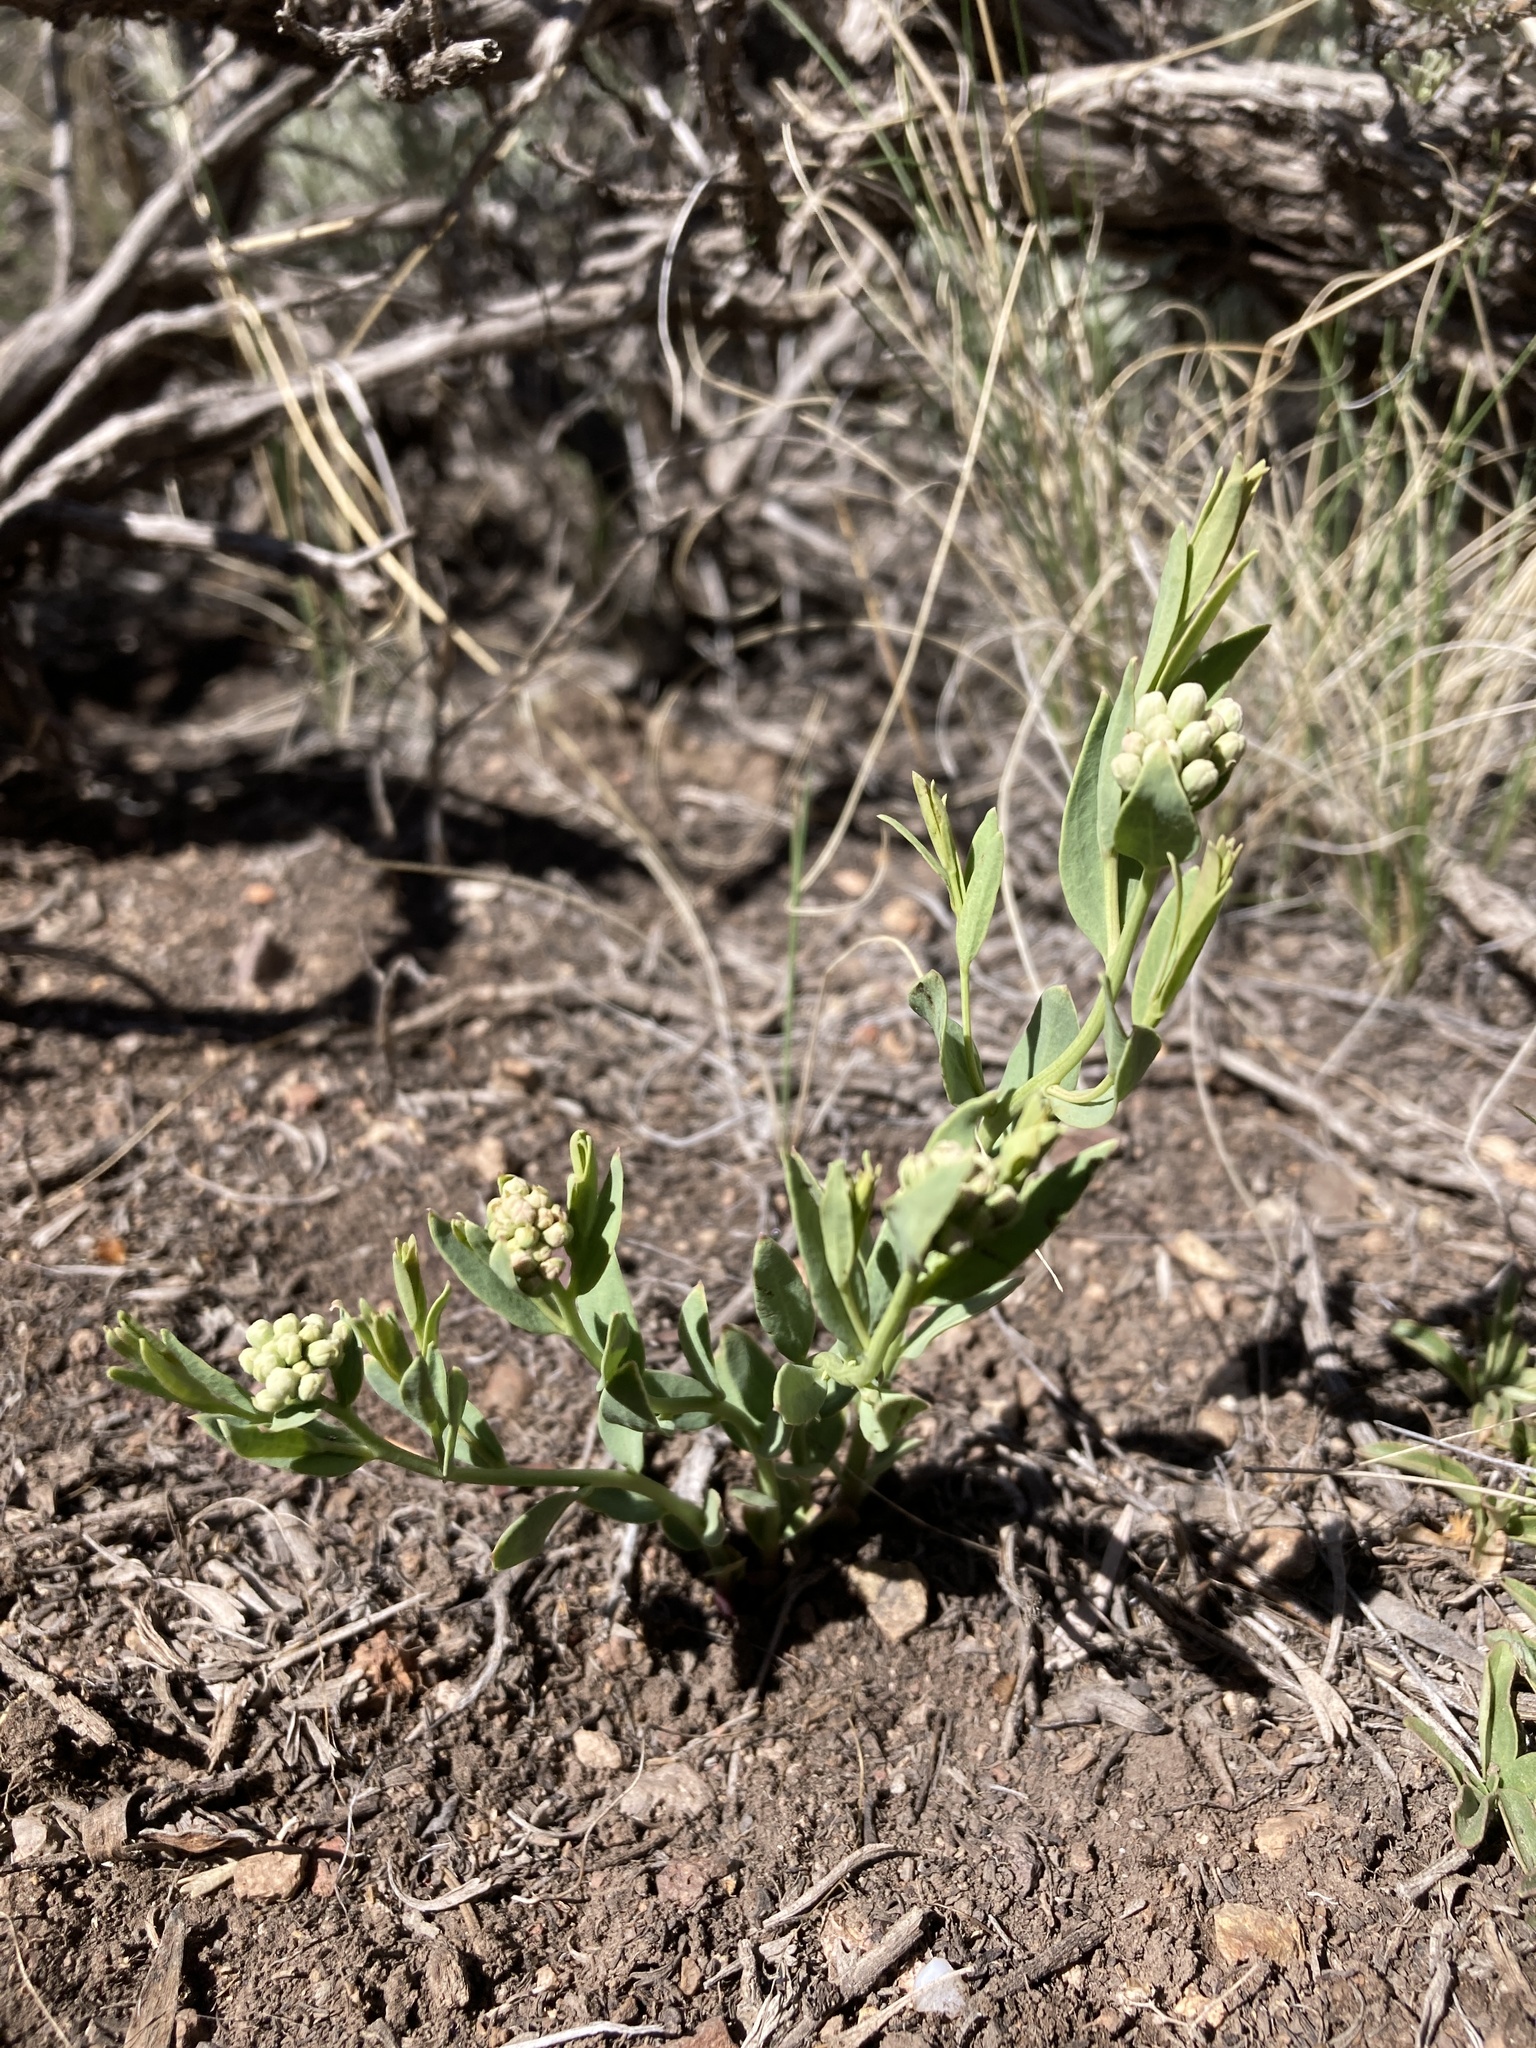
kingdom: Plantae
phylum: Tracheophyta
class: Magnoliopsida
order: Santalales
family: Comandraceae
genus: Comandra
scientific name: Comandra umbellata
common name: Bastard toadflax
